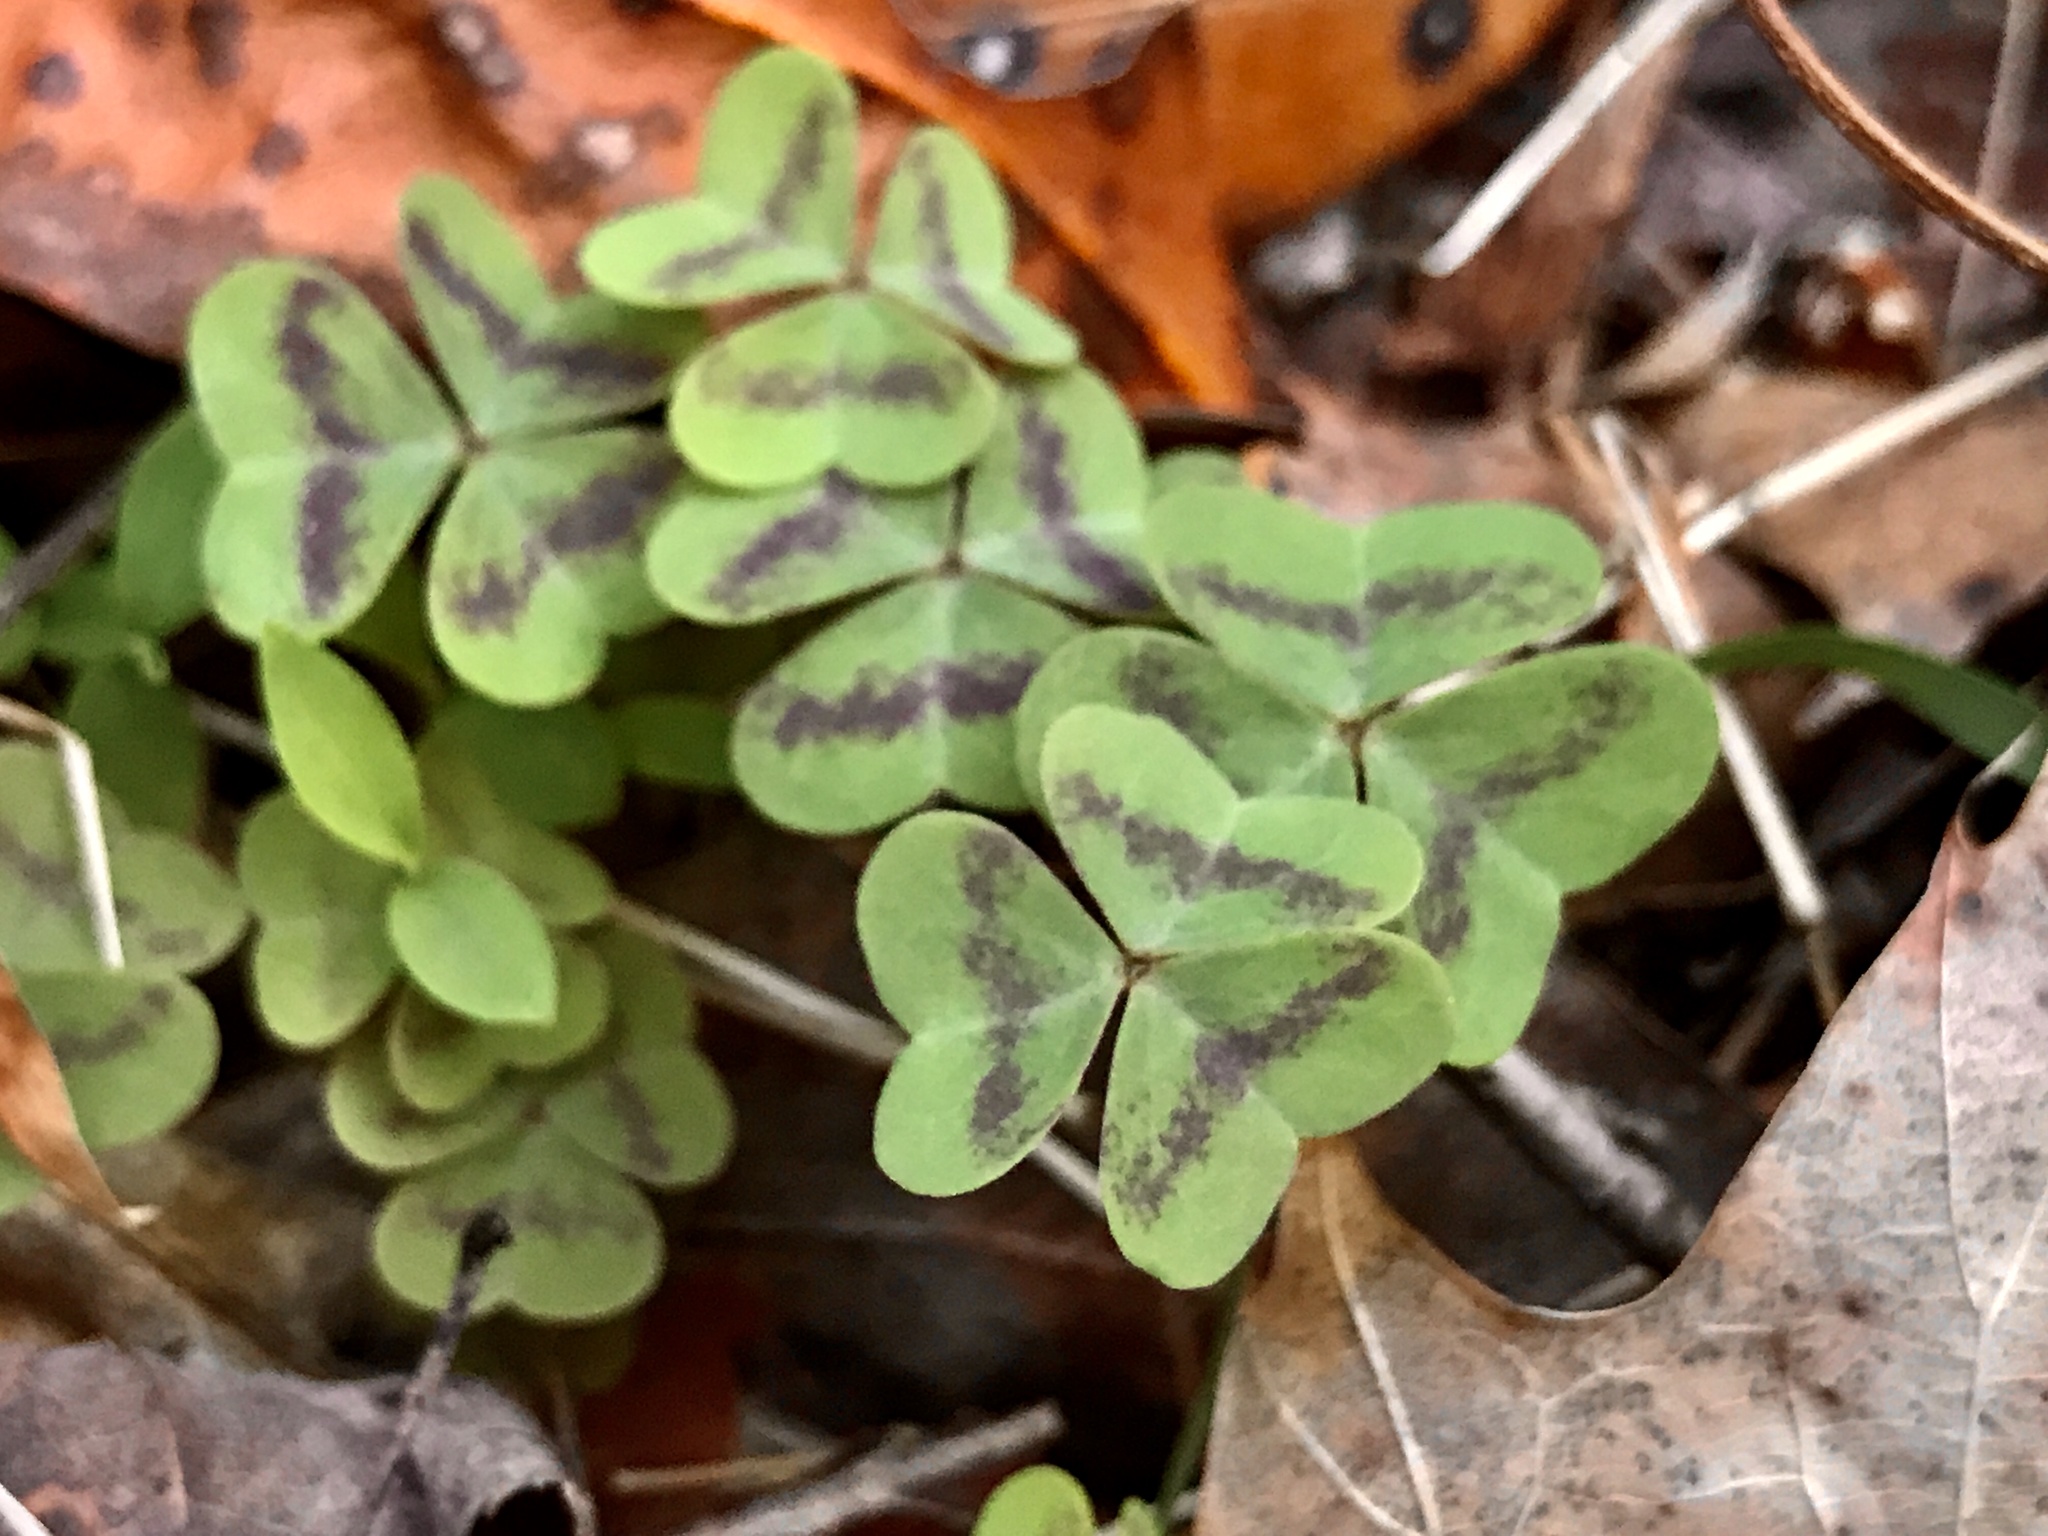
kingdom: Plantae
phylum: Tracheophyta
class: Magnoliopsida
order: Oxalidales
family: Oxalidaceae
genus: Oxalis
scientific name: Oxalis violacea
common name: Violet wood-sorrel
